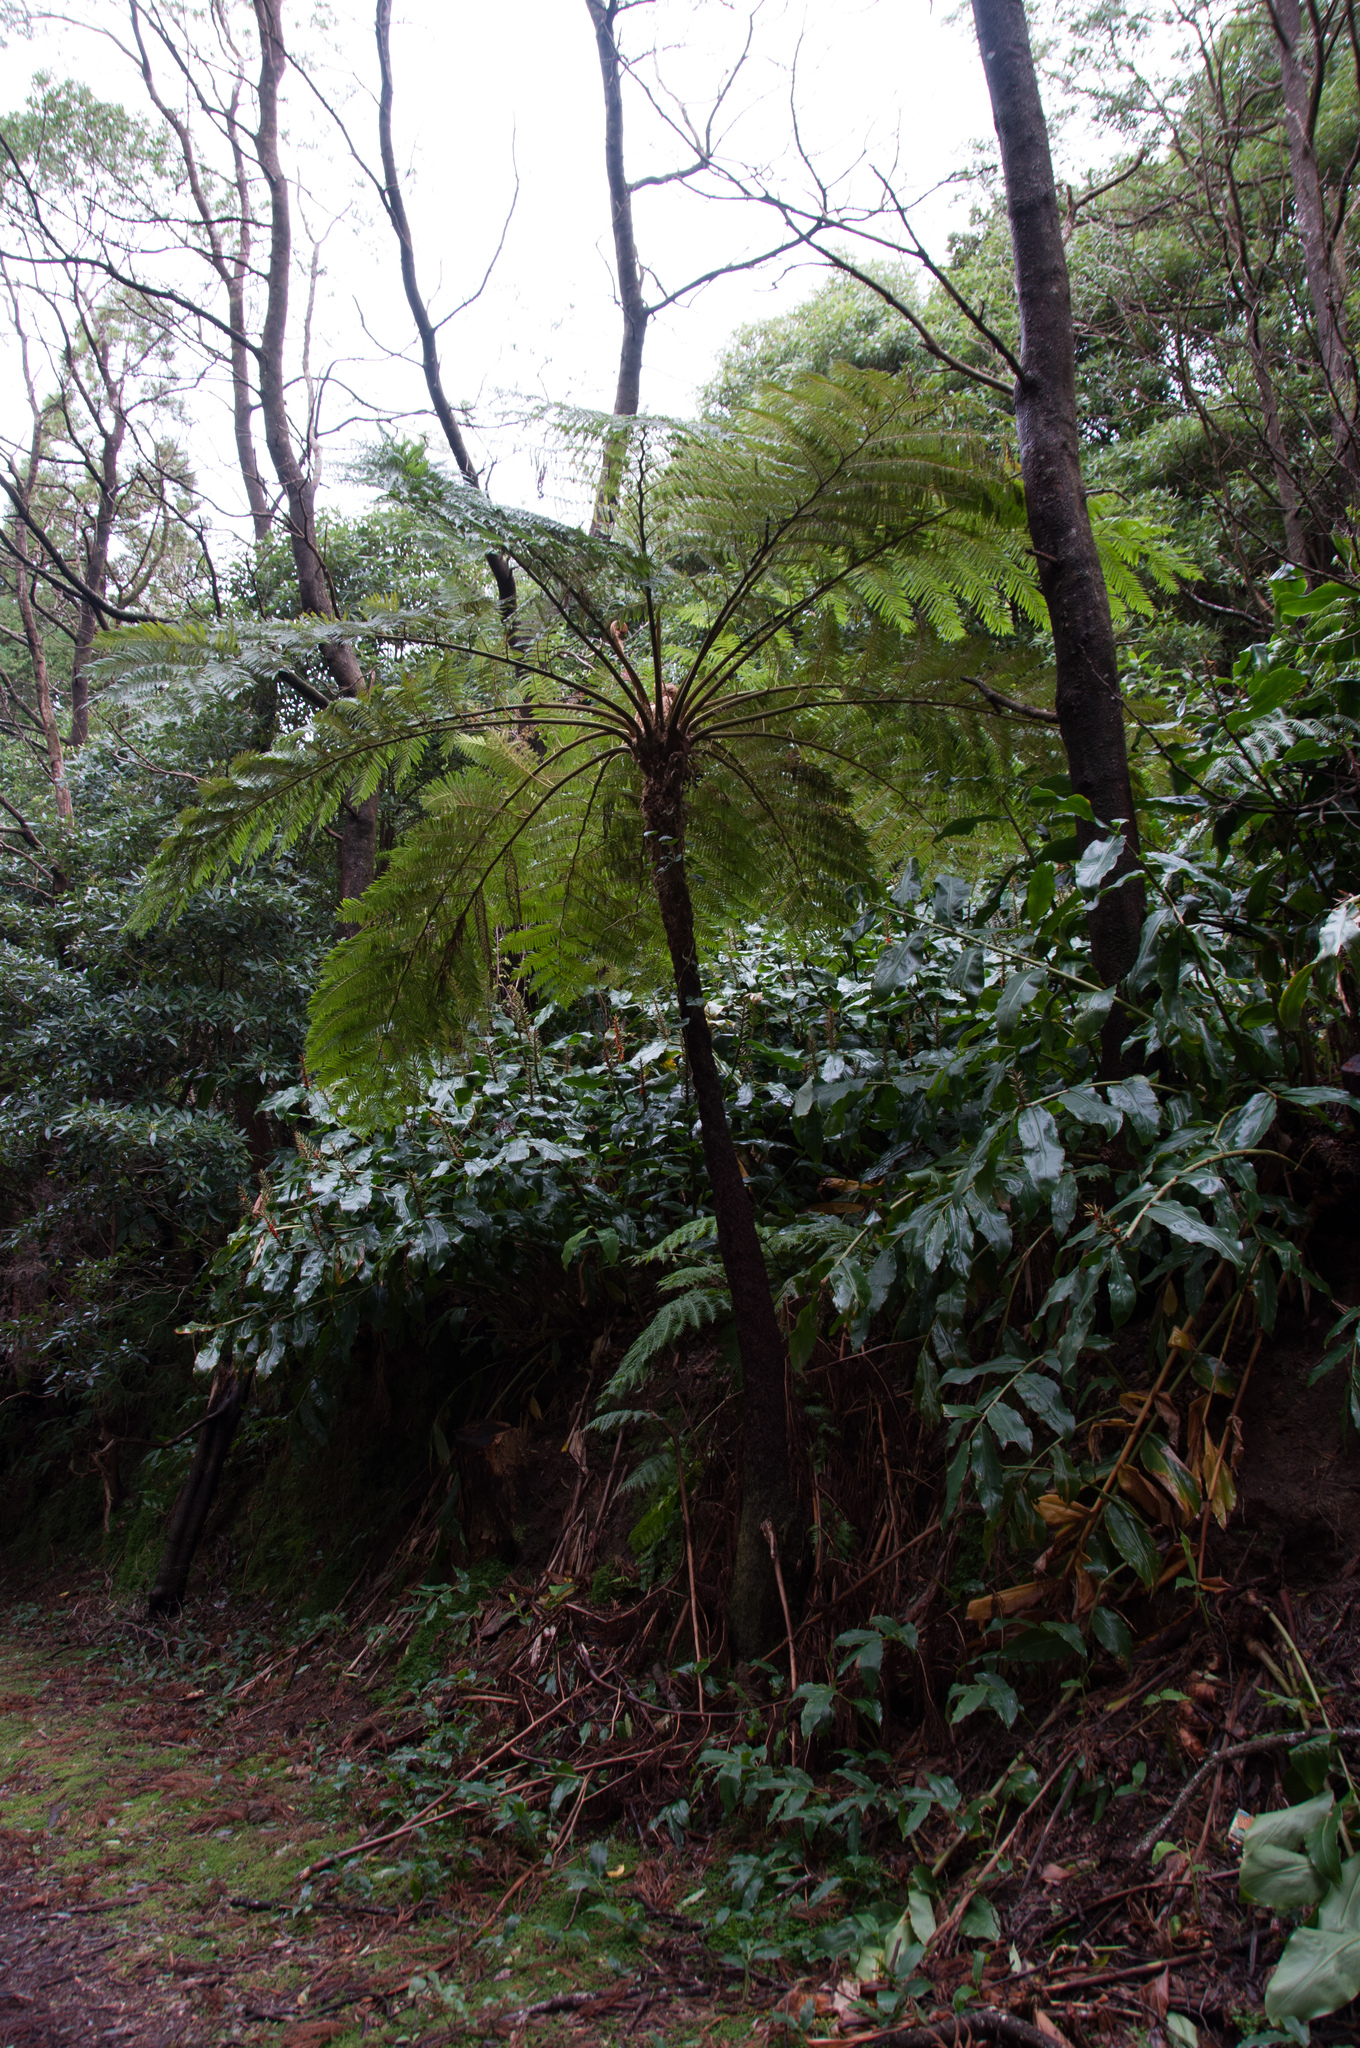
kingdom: Plantae
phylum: Tracheophyta
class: Polypodiopsida
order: Cyatheales
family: Cyatheaceae
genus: Sphaeropteris
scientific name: Sphaeropteris cooperi
